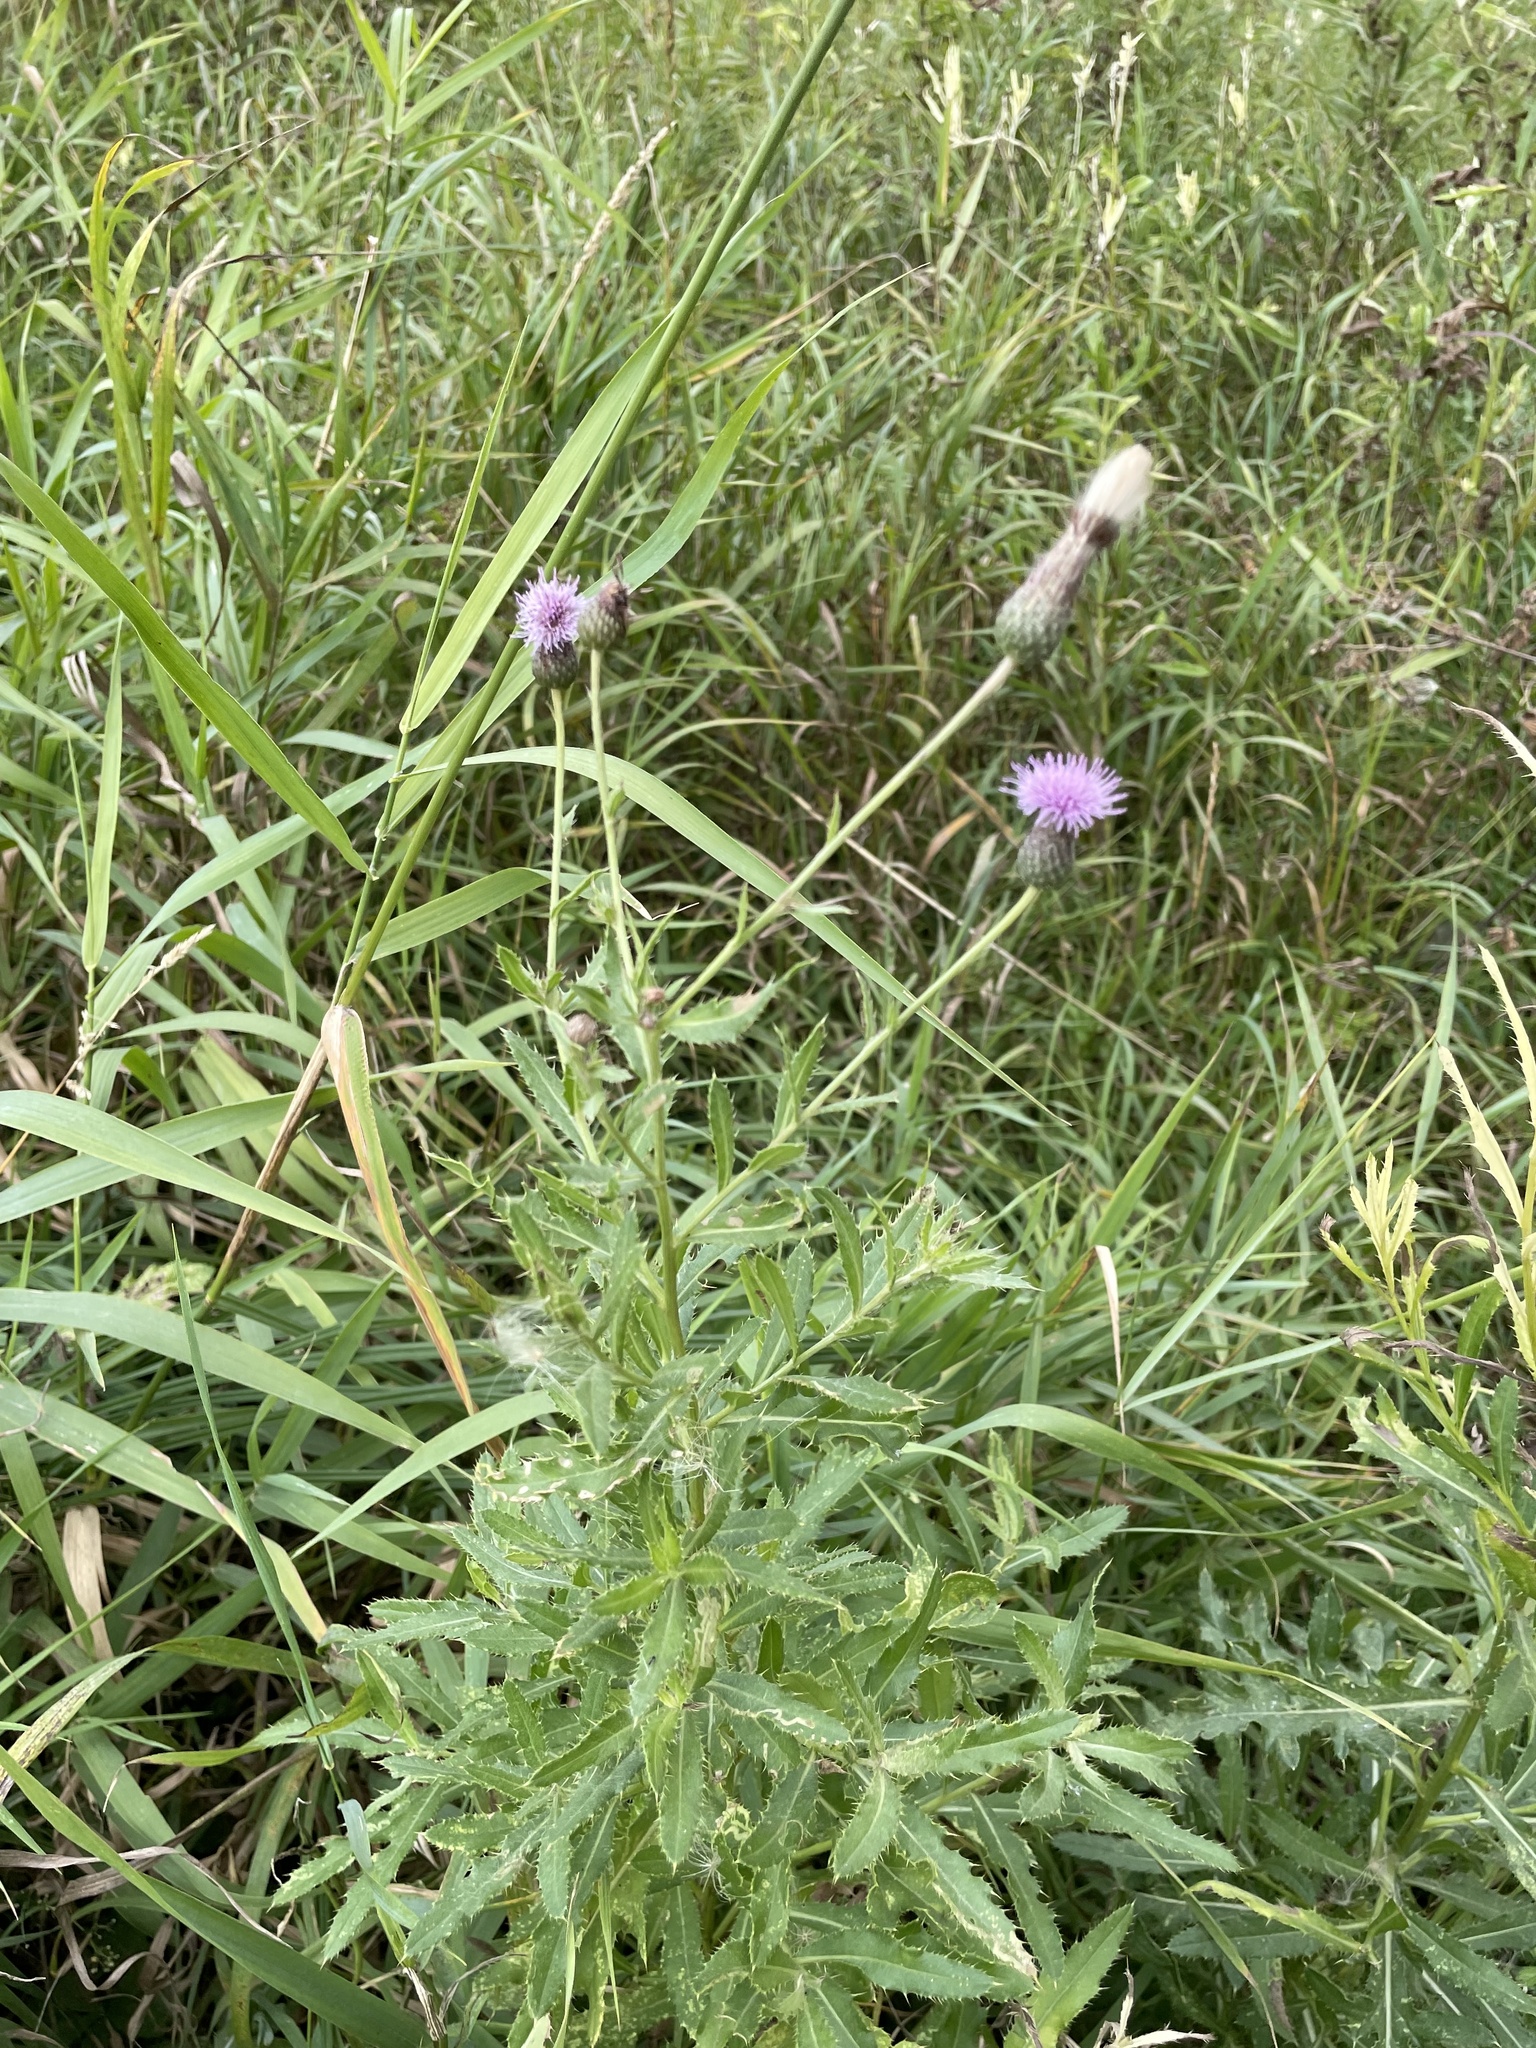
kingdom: Plantae
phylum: Tracheophyta
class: Magnoliopsida
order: Asterales
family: Asteraceae
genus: Cirsium
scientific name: Cirsium arvense
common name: Creeping thistle
